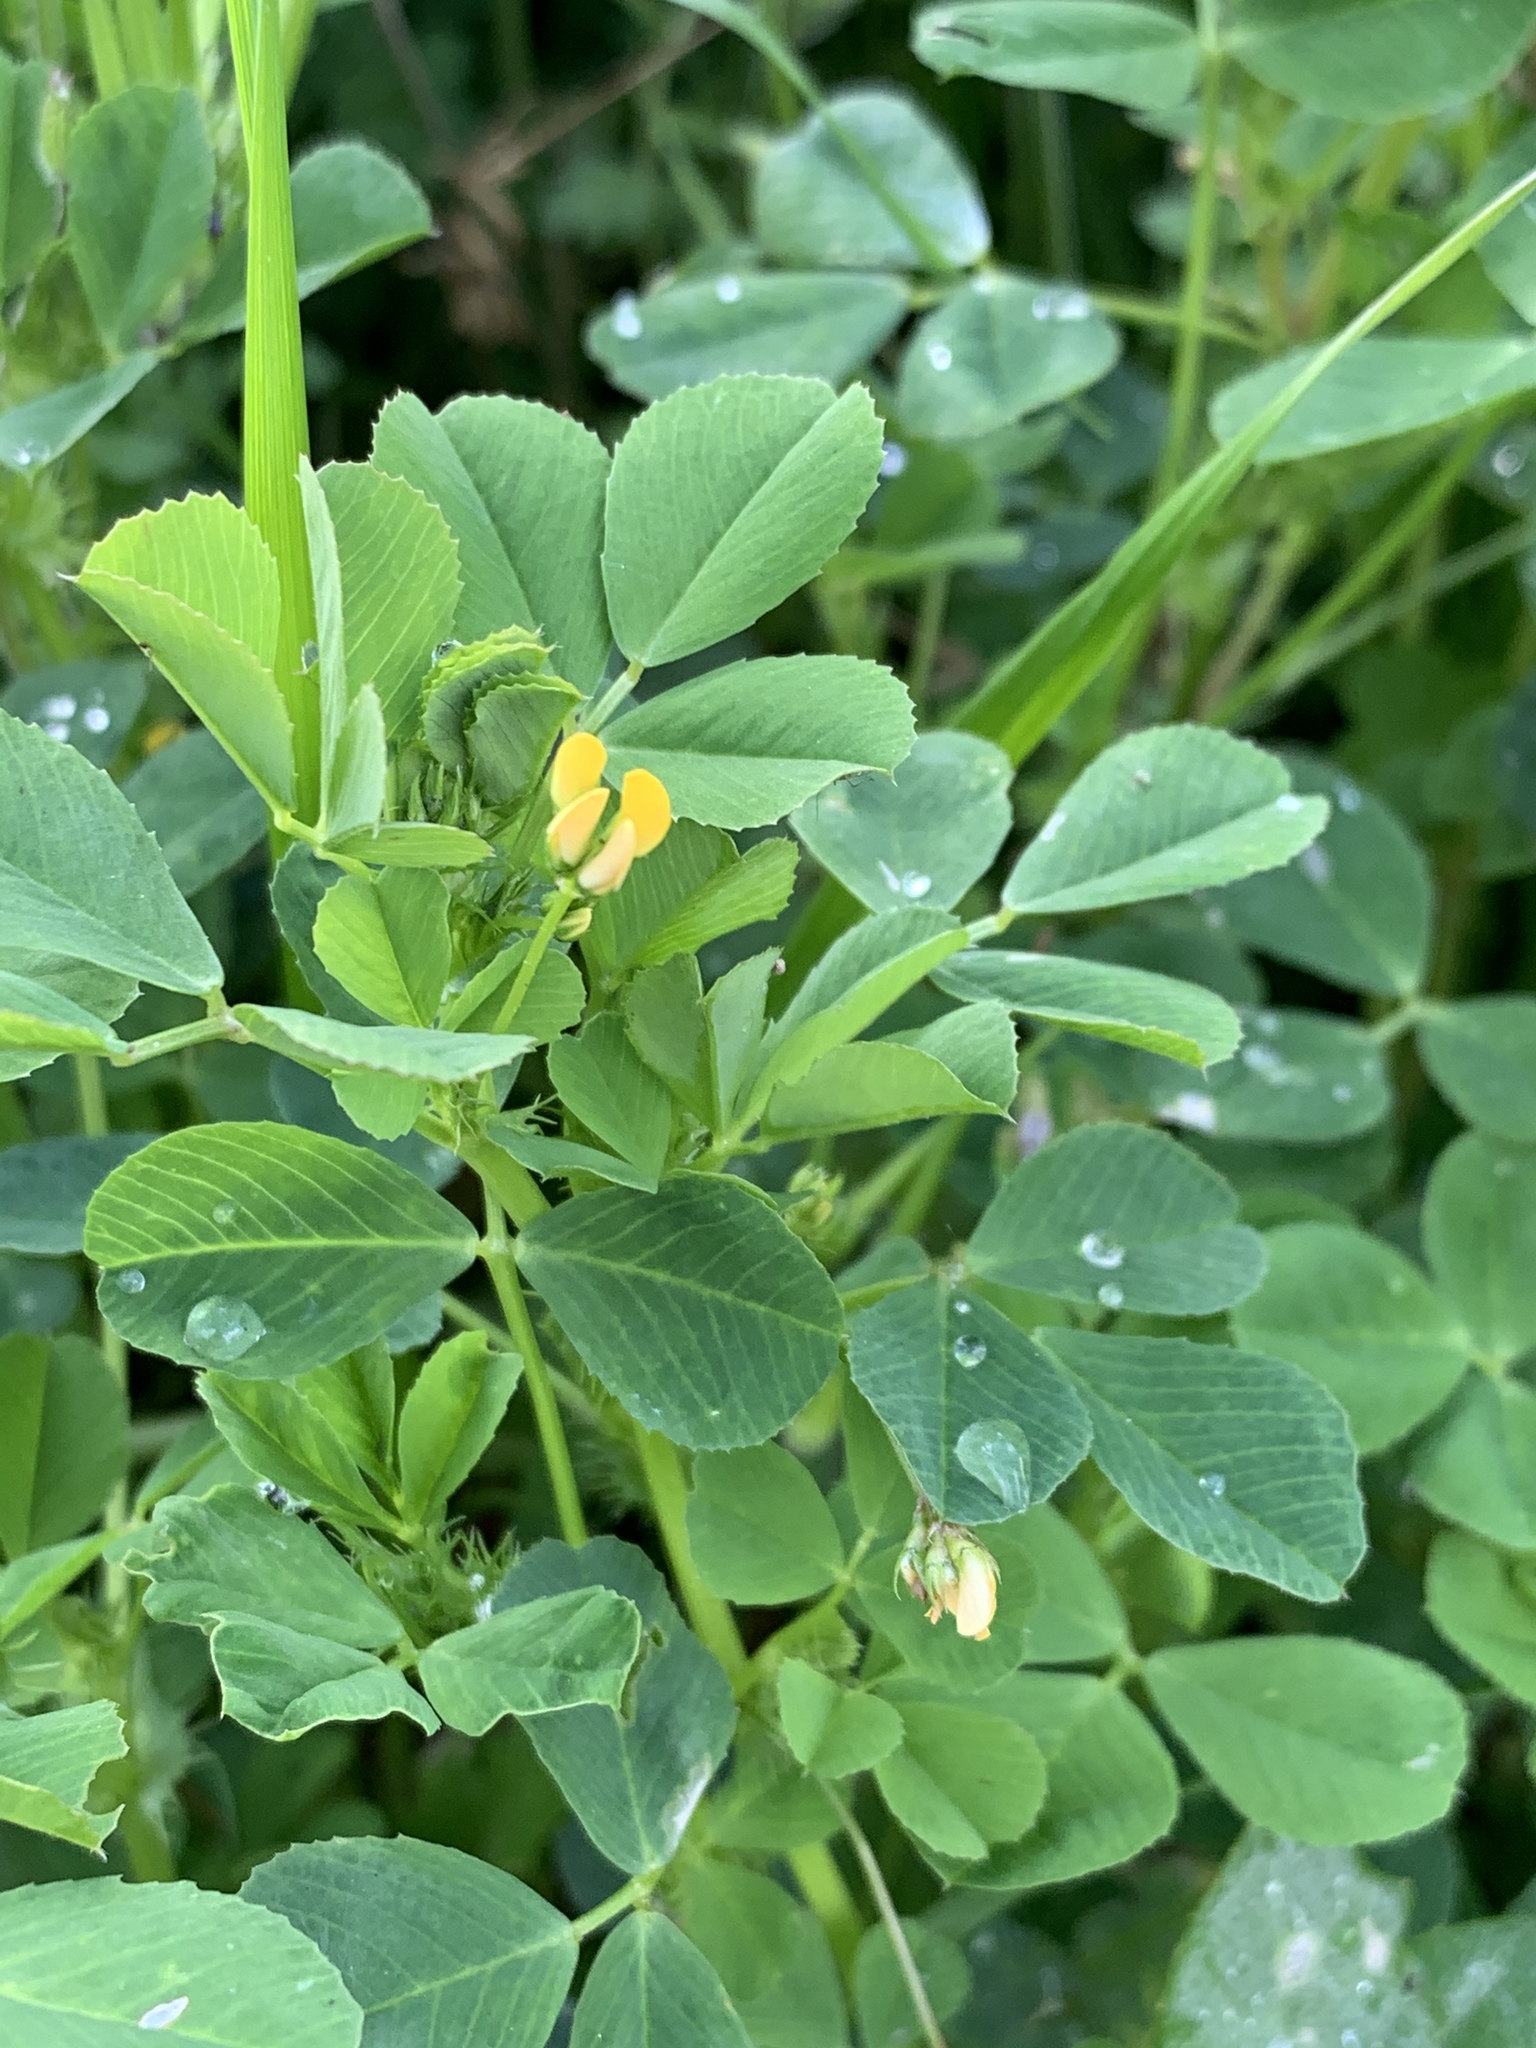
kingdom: Plantae
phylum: Tracheophyta
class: Magnoliopsida
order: Fabales
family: Fabaceae
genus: Medicago
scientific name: Medicago polymorpha
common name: Burclover
